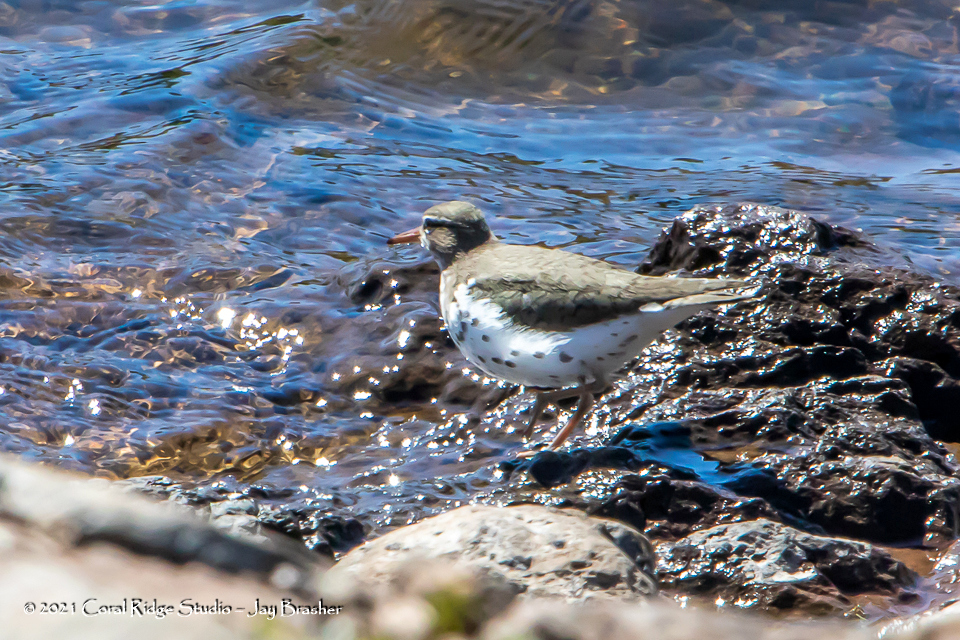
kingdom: Animalia
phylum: Chordata
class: Aves
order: Charadriiformes
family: Scolopacidae
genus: Actitis
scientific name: Actitis macularius
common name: Spotted sandpiper
